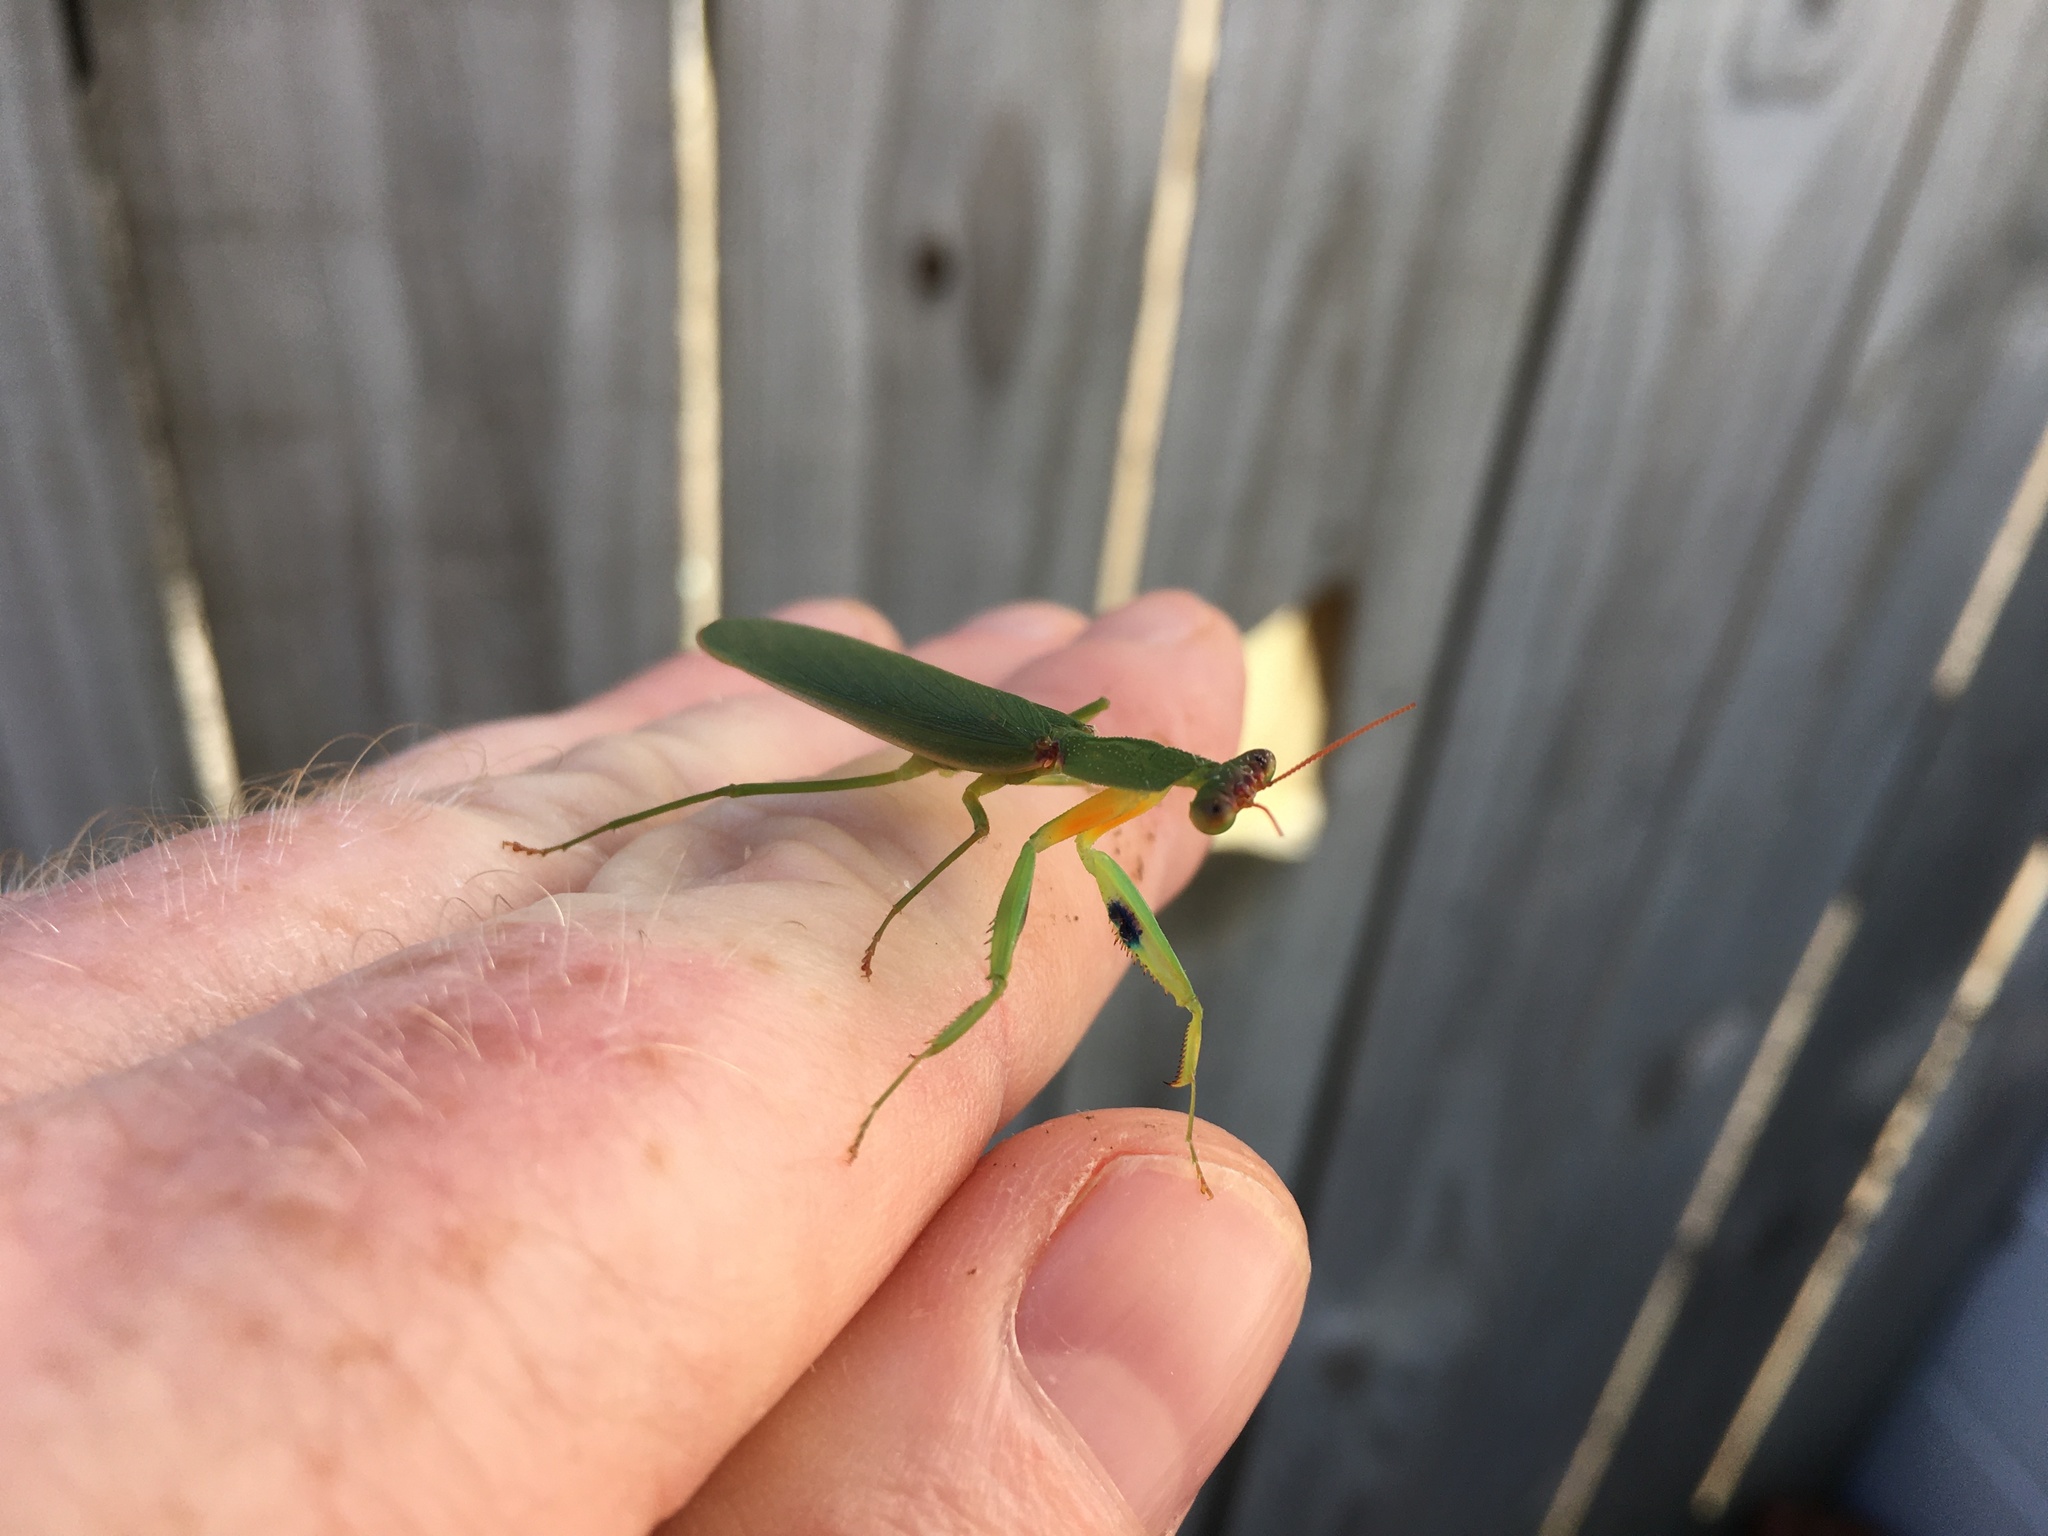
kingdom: Animalia
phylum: Arthropoda
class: Insecta
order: Mantodea
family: Mantidae
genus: Orthodera
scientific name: Orthodera novaezealandiae
